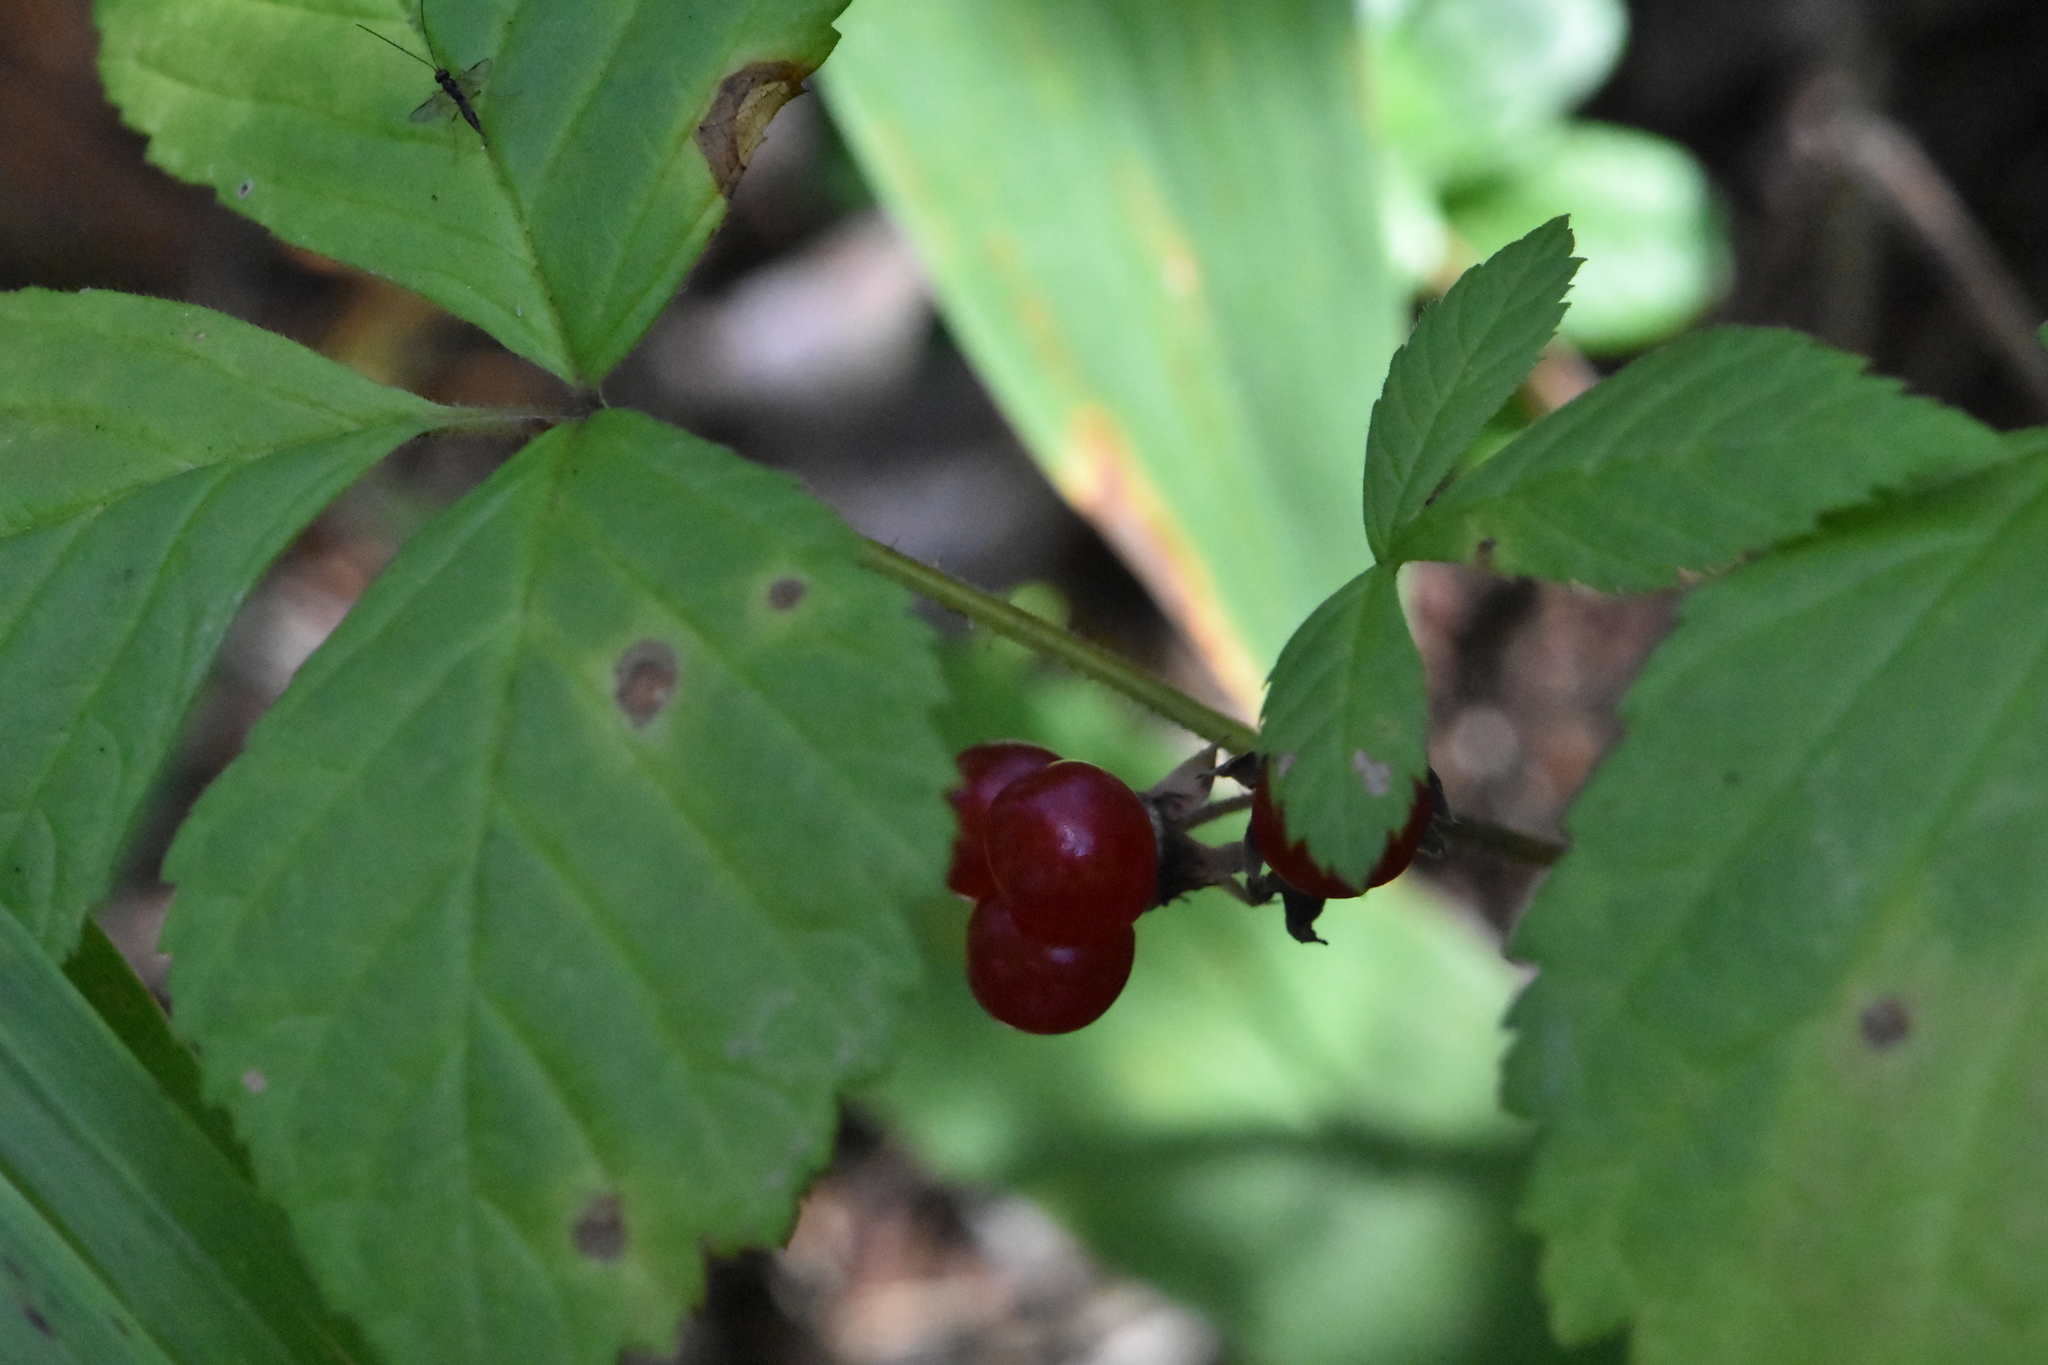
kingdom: Plantae
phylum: Tracheophyta
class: Magnoliopsida
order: Rosales
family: Rosaceae
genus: Rubus
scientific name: Rubus saxatilis
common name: Stone bramble
